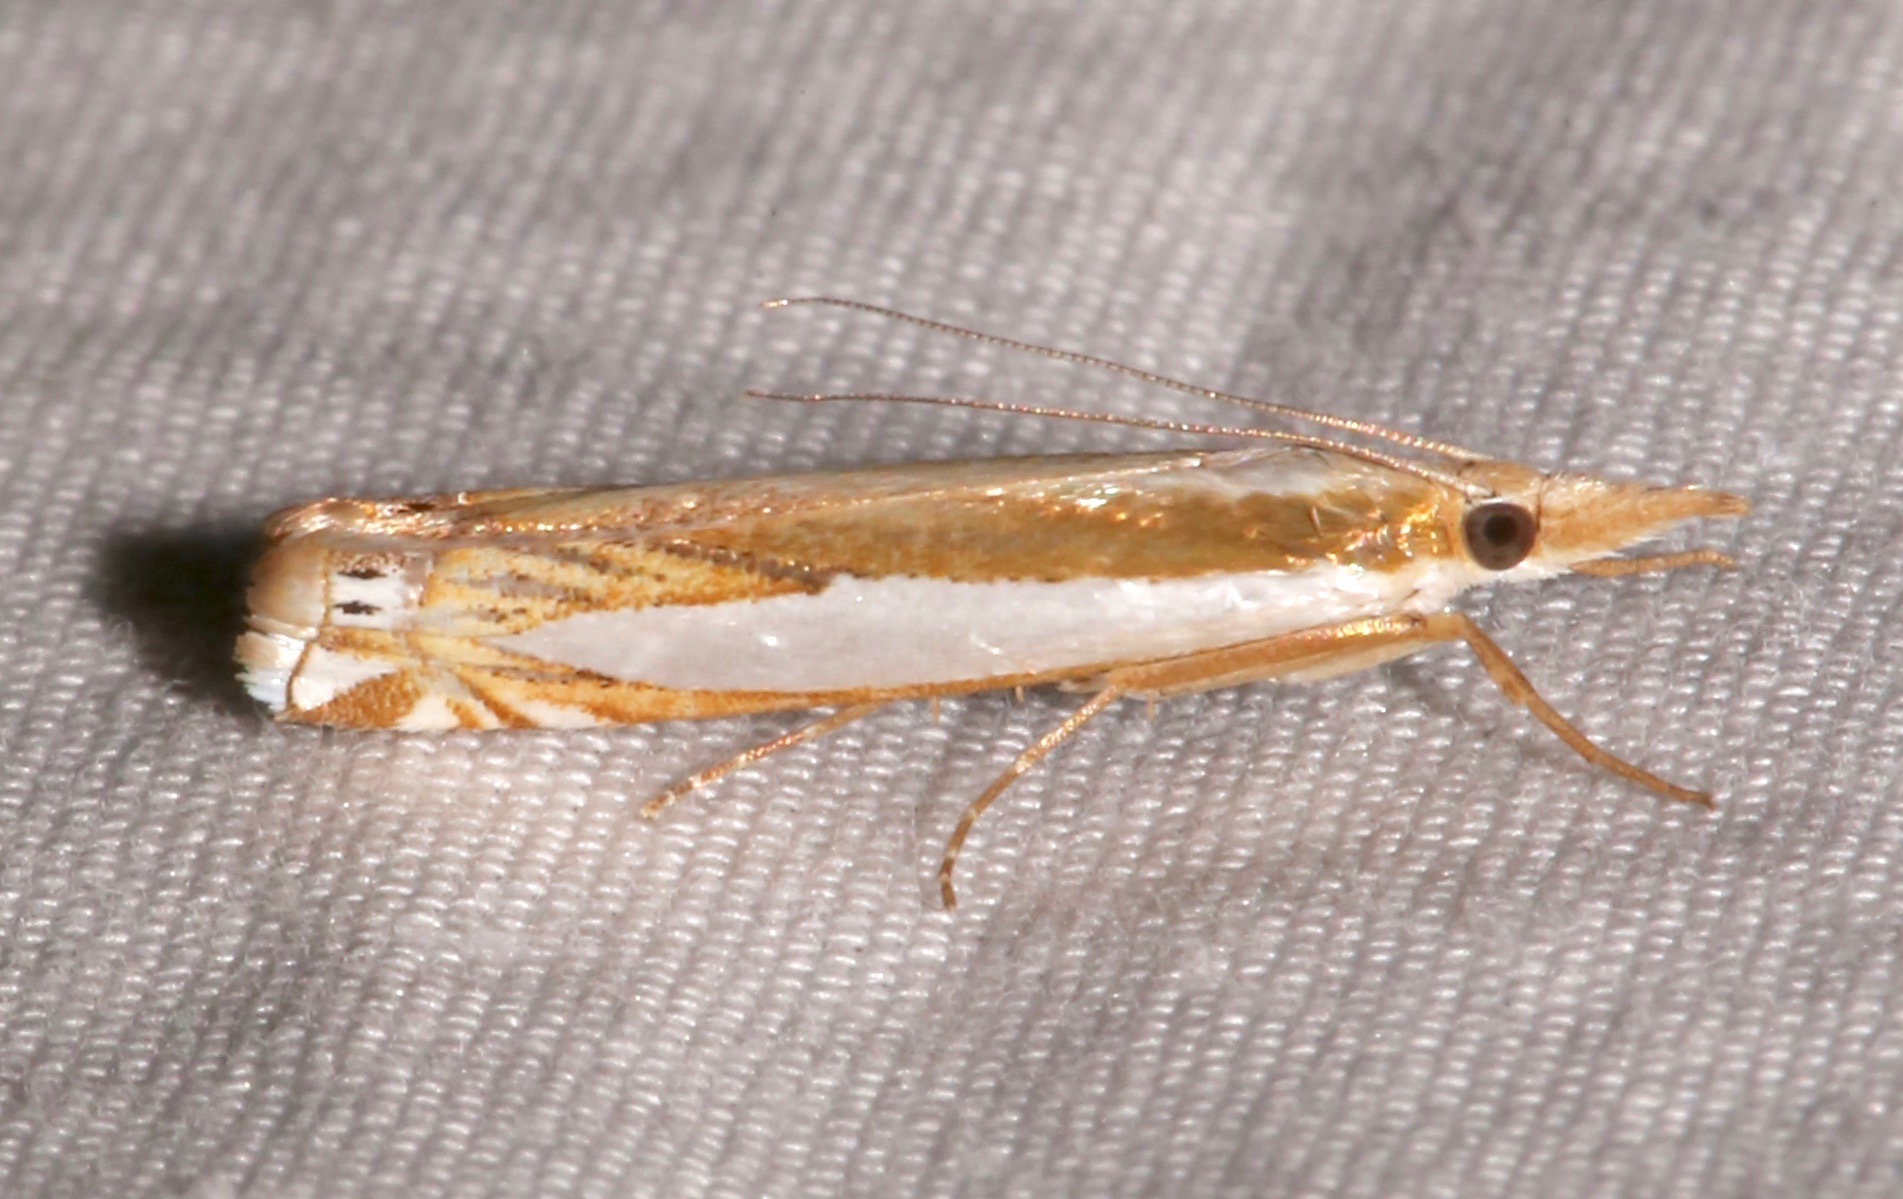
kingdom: Animalia
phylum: Arthropoda
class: Insecta
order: Lepidoptera
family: Crambidae
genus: Crambus
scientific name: Crambus cyrilellus
